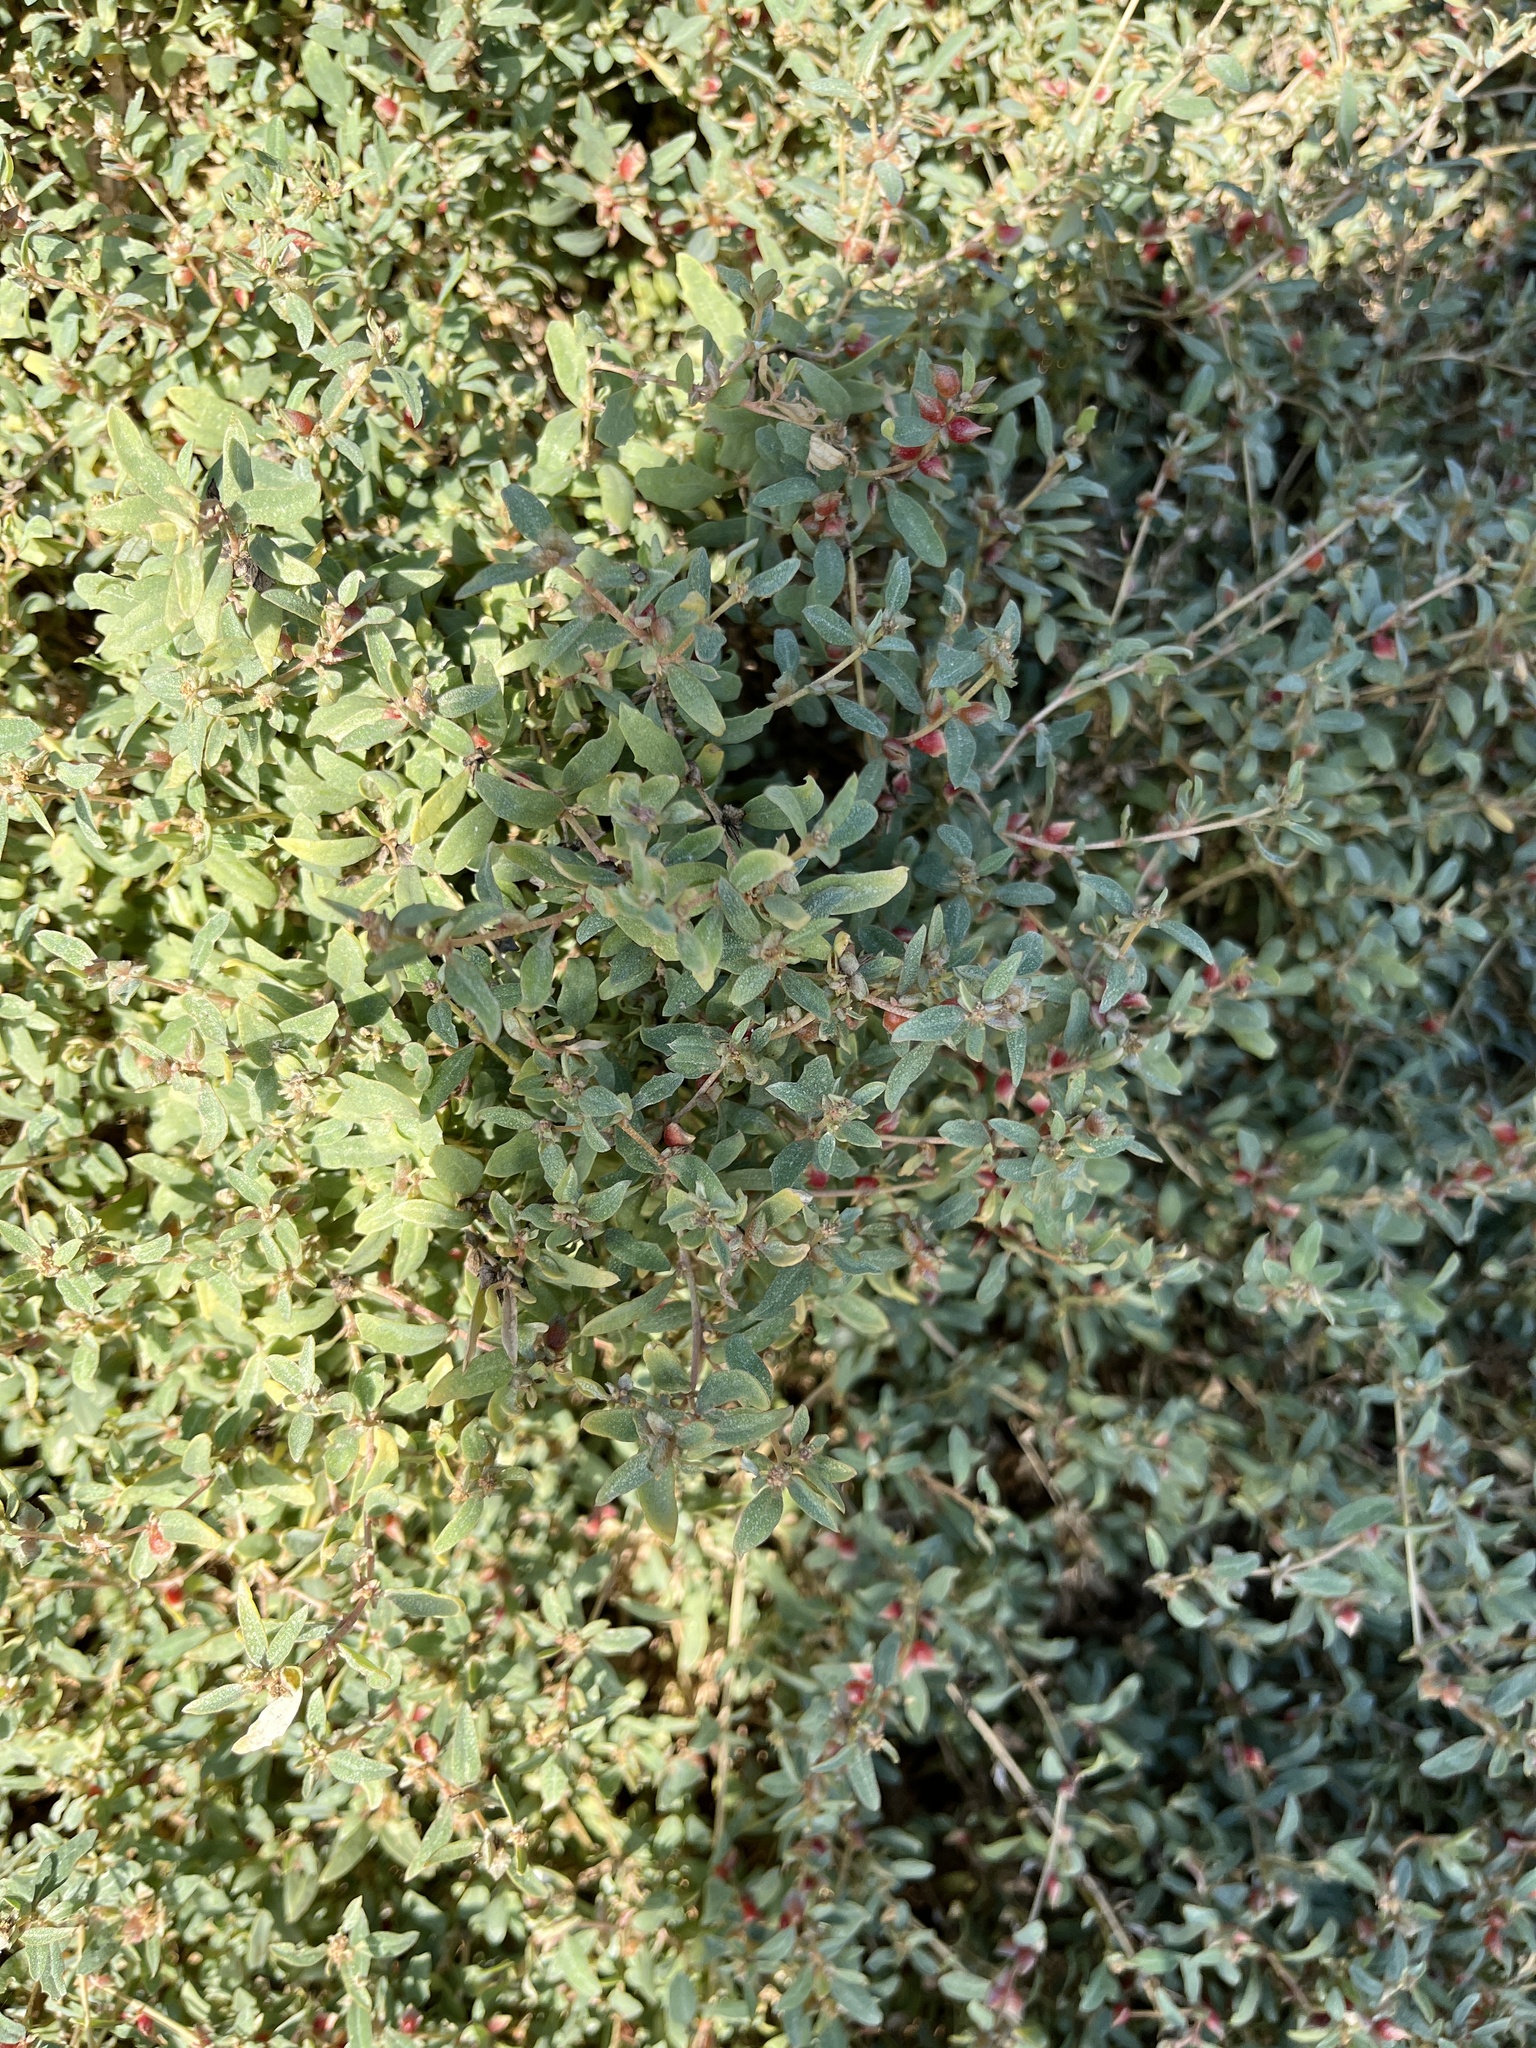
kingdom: Plantae
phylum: Tracheophyta
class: Magnoliopsida
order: Caryophyllales
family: Amaranthaceae
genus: Atriplex
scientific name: Atriplex semibaccata
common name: Australian saltbush
